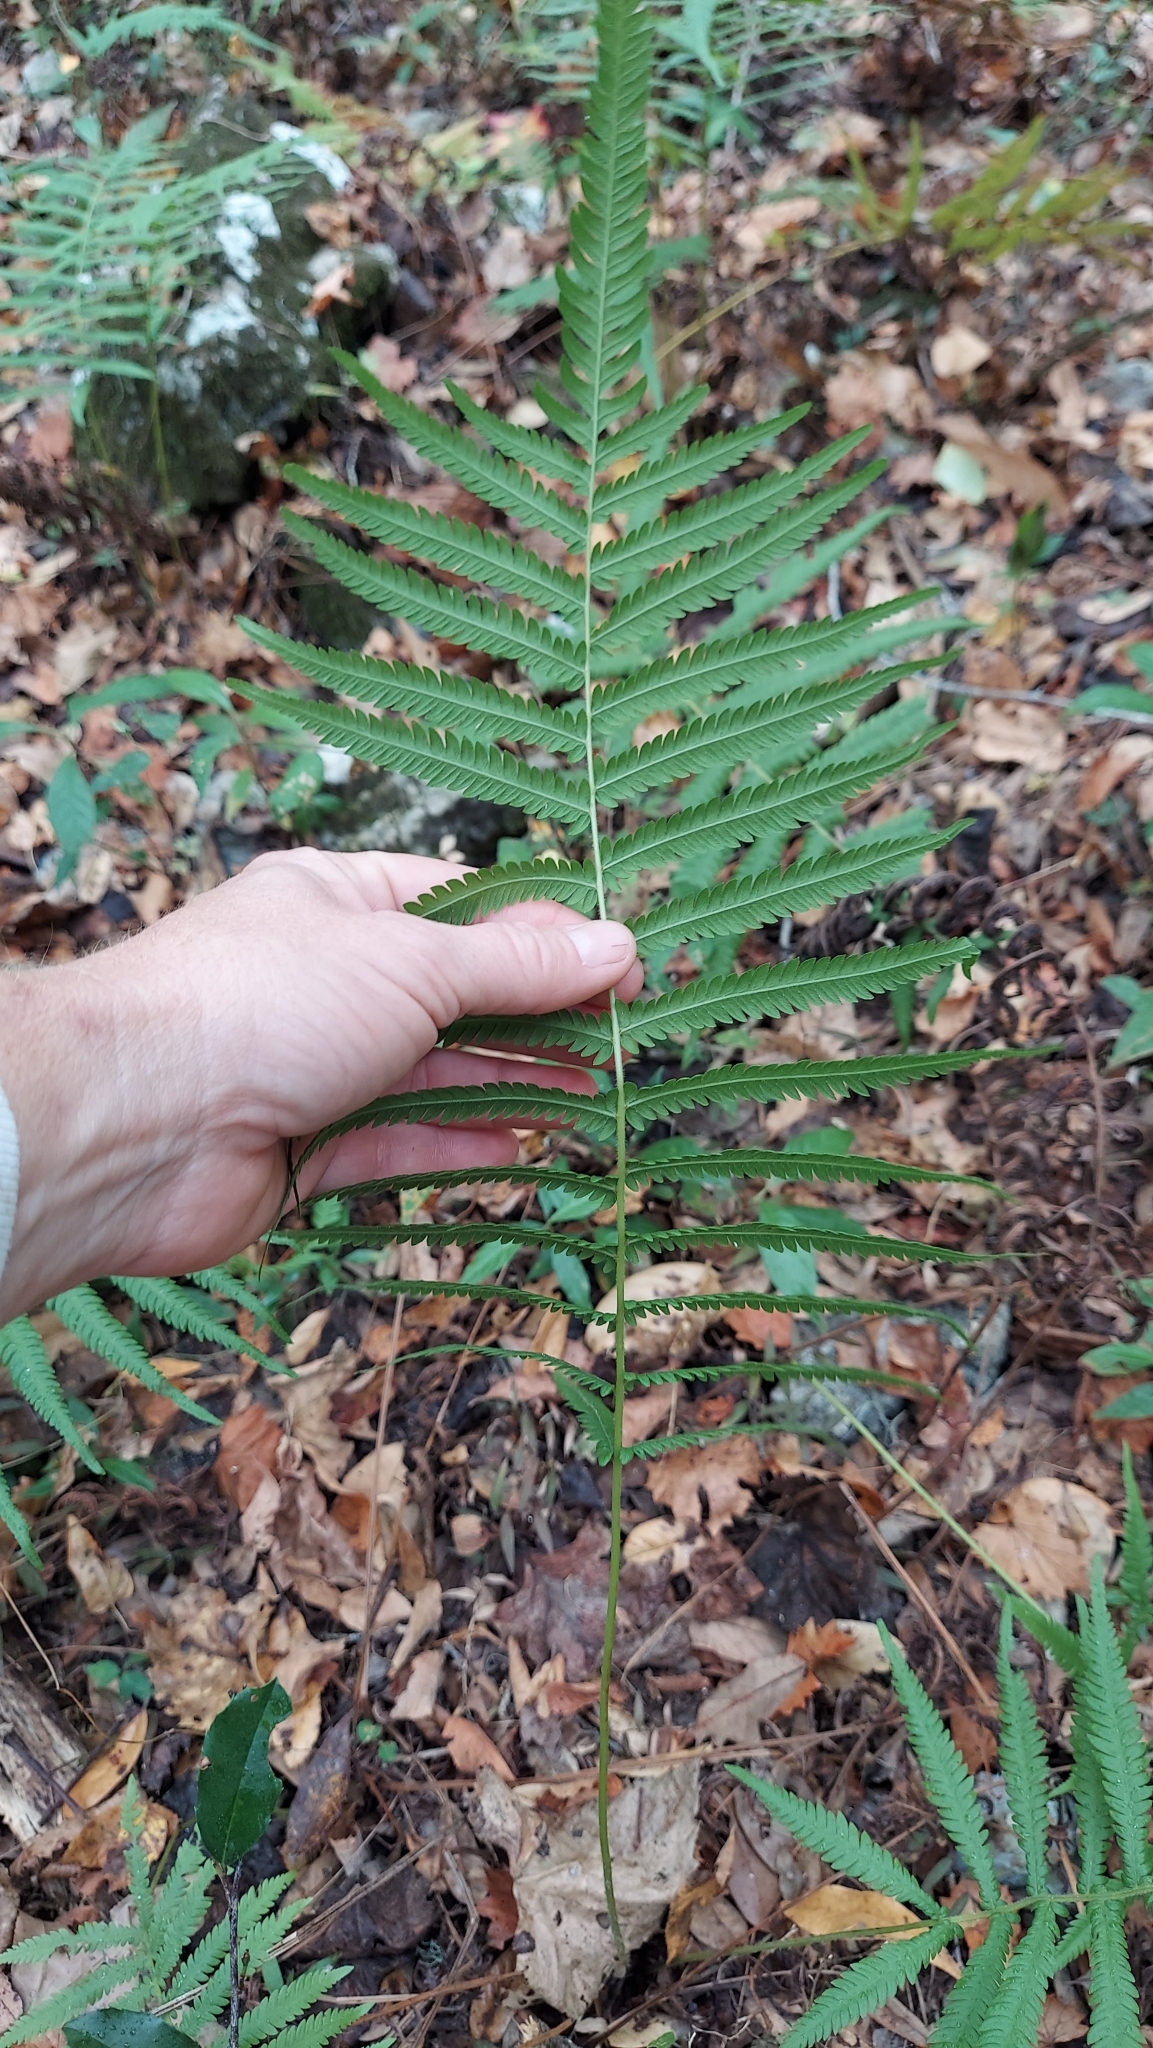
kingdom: Plantae
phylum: Tracheophyta
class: Polypodiopsida
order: Polypodiales
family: Thelypteridaceae
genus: Pelazoneuron
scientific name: Pelazoneuron ovatum
